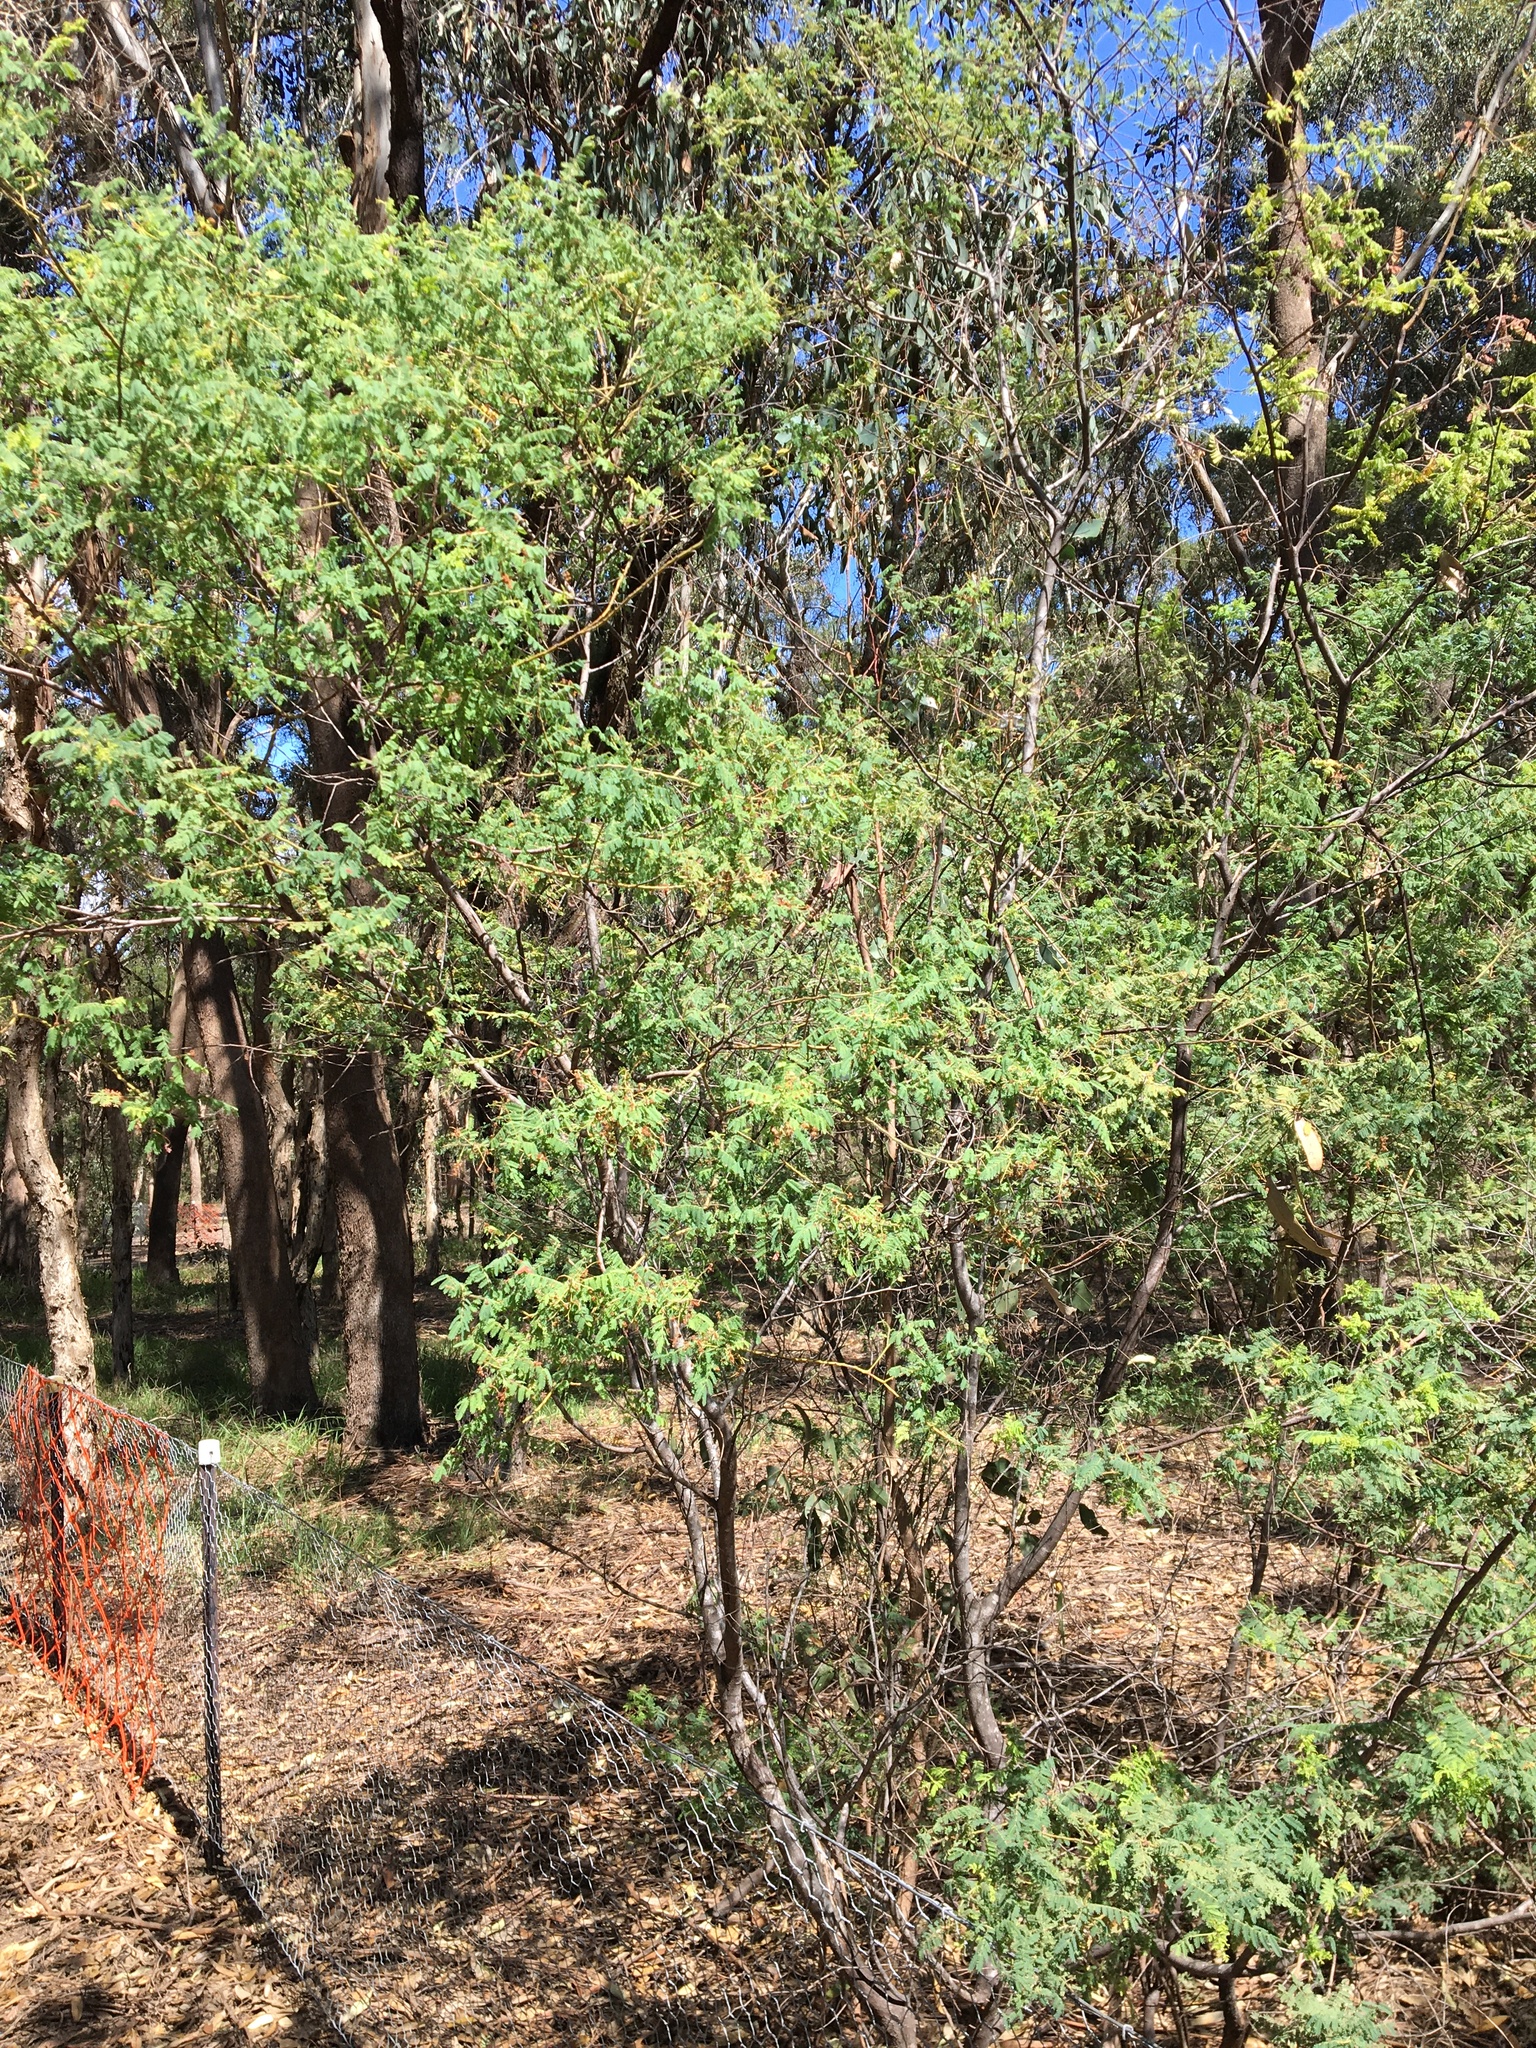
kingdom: Plantae
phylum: Tracheophyta
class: Magnoliopsida
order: Fabales
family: Fabaceae
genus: Acacia
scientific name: Acacia pubescens
